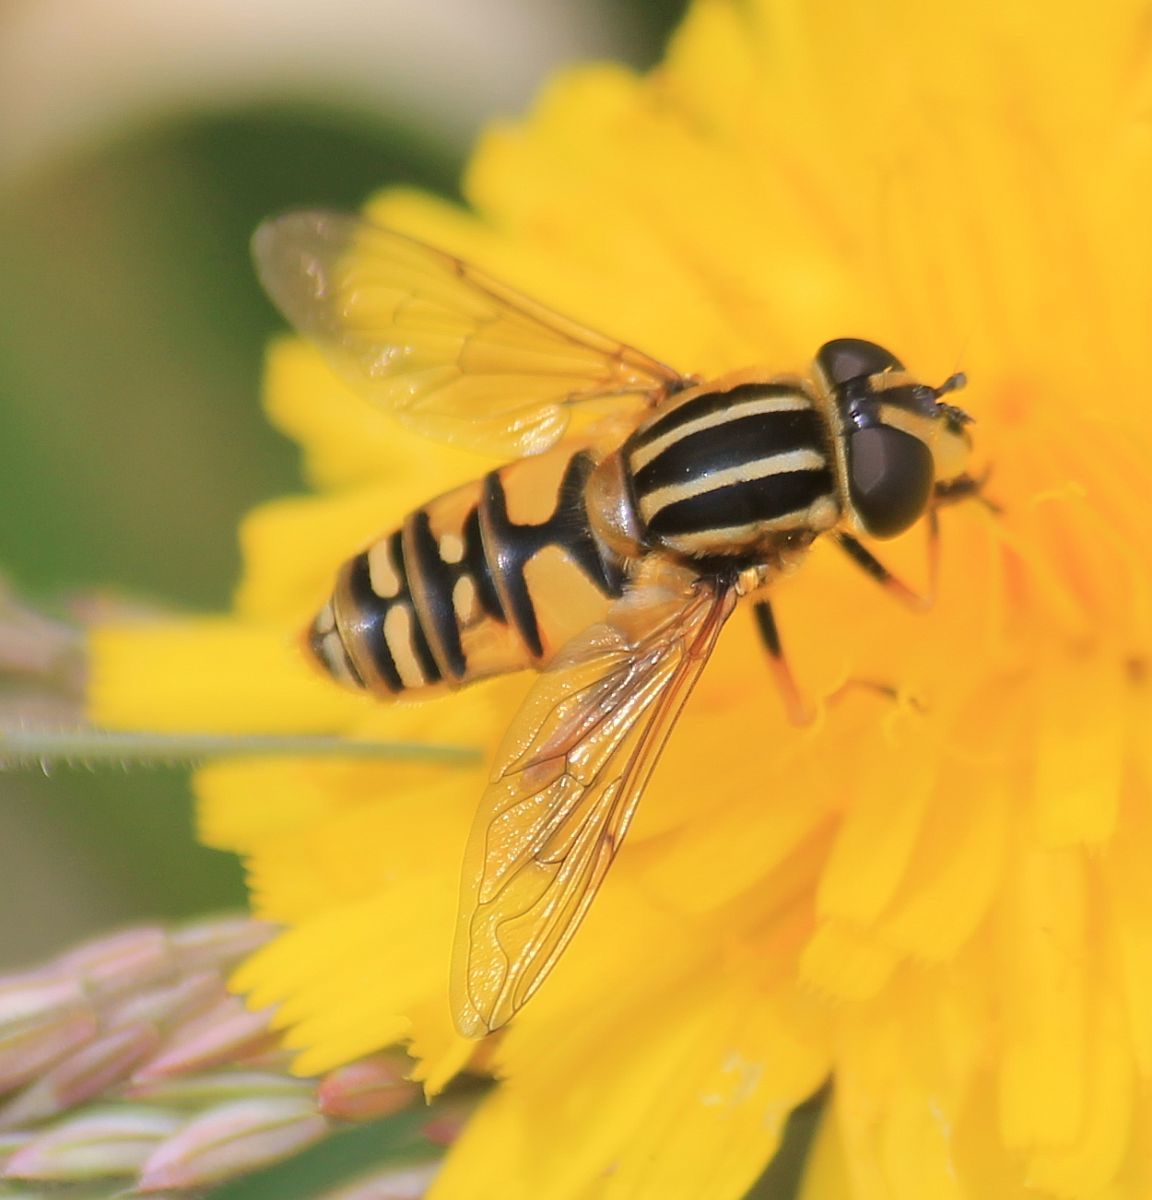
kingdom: Animalia
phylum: Arthropoda
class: Insecta
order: Diptera
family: Syrphidae
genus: Helophilus
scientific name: Helophilus pendulus
